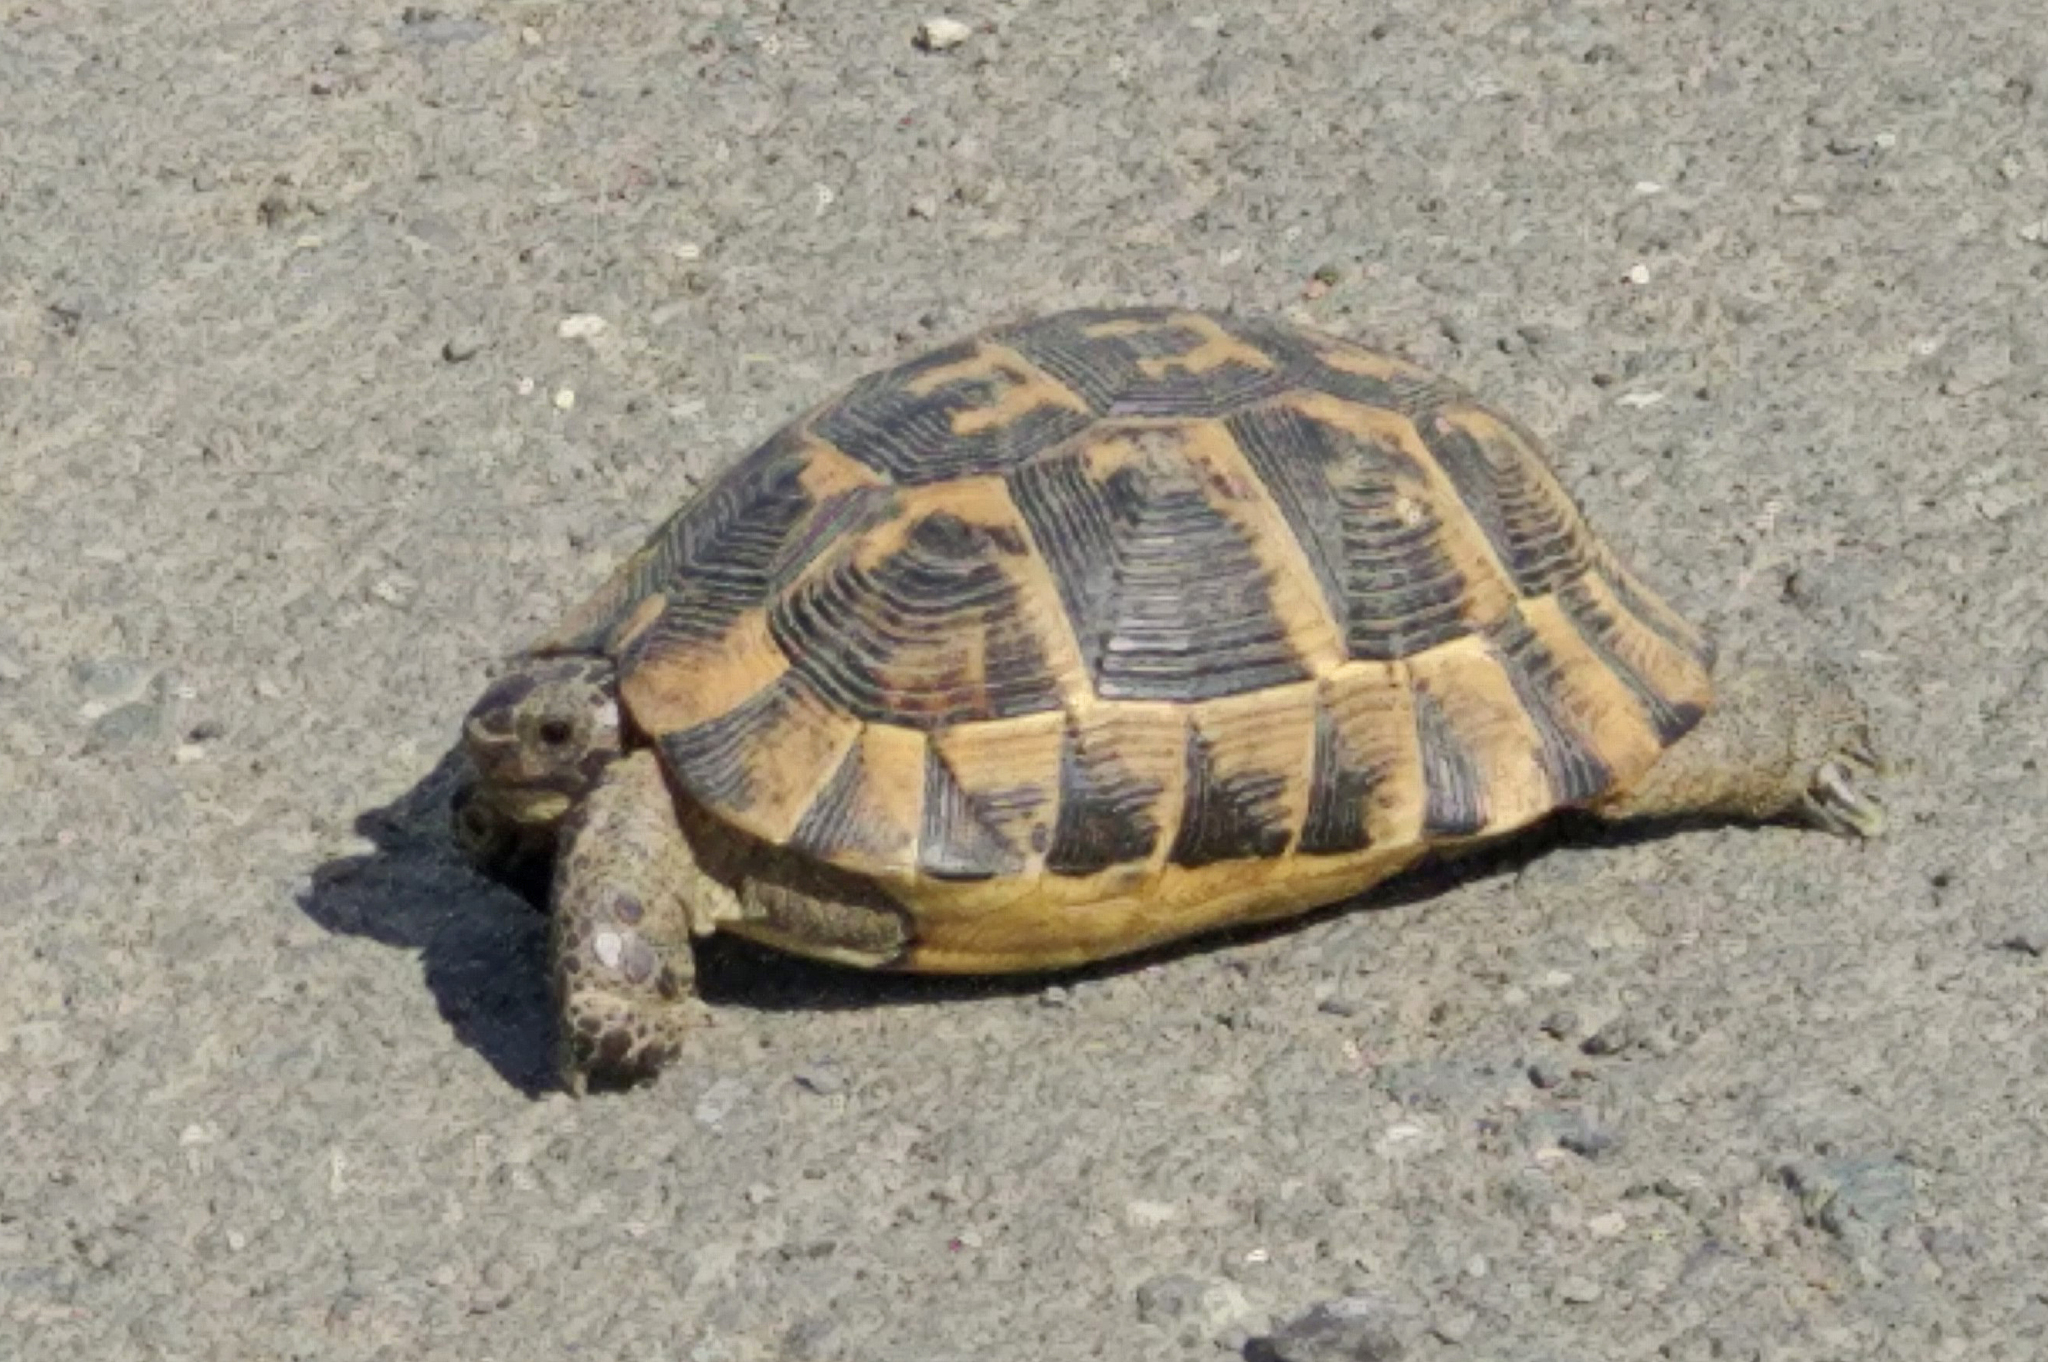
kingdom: Animalia
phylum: Chordata
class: Testudines
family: Testudinidae
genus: Testudo
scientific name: Testudo graeca
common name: Common tortoise
